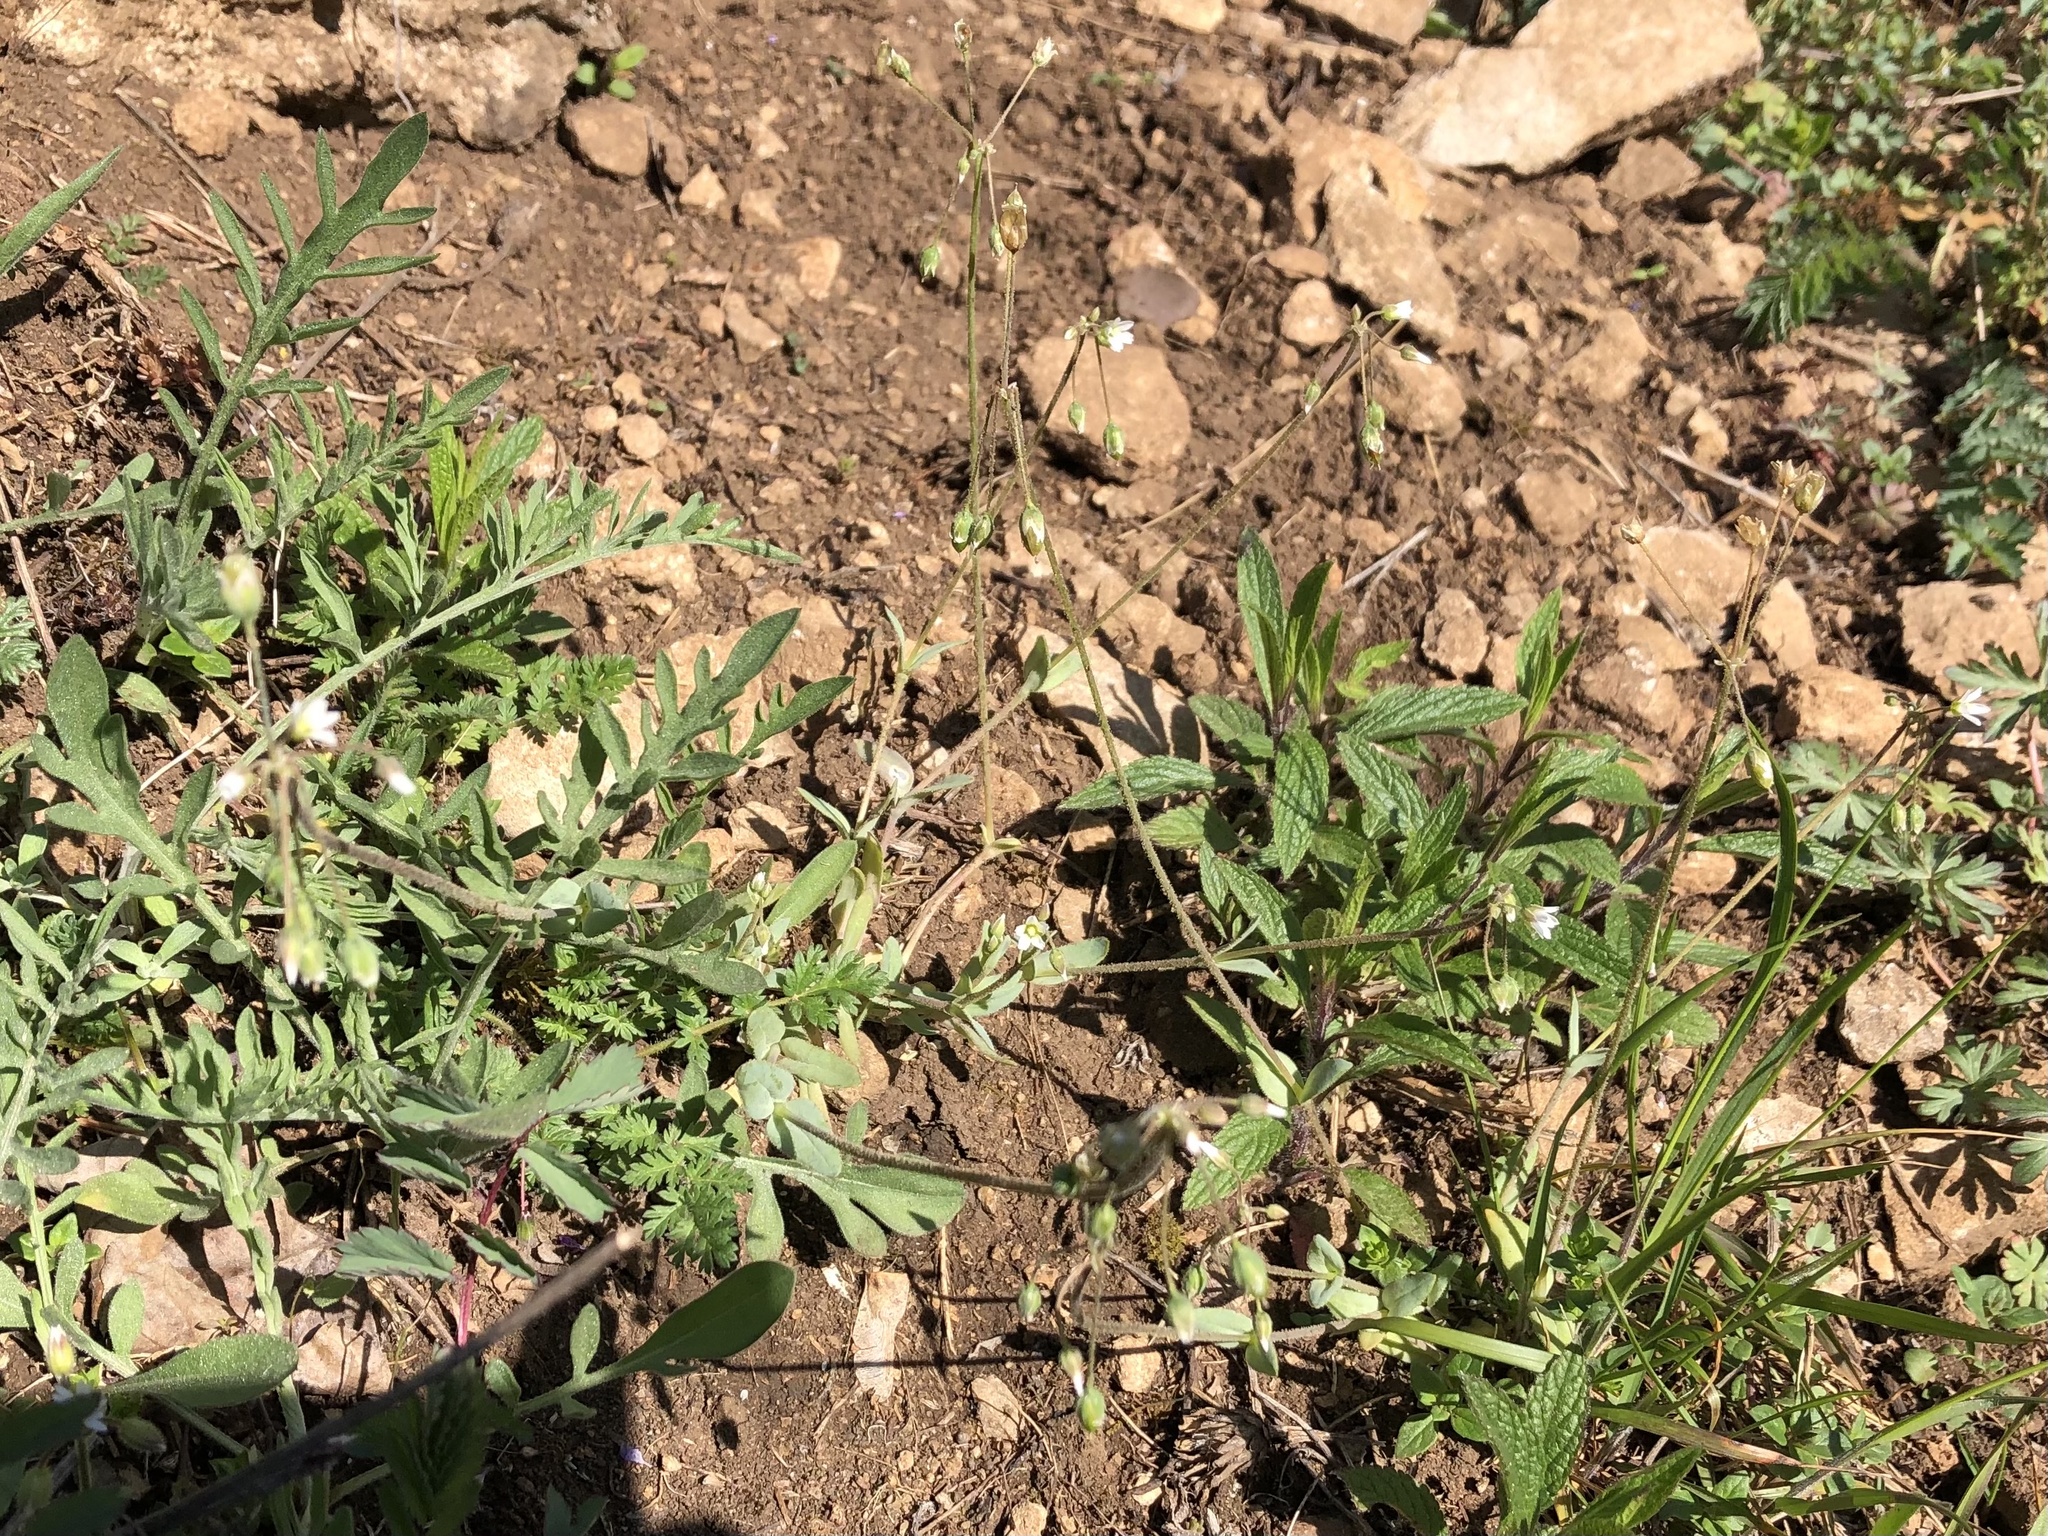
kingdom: Plantae
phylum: Tracheophyta
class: Magnoliopsida
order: Caryophyllales
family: Caryophyllaceae
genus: Holosteum
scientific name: Holosteum umbellatum
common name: Jagged chickweed
